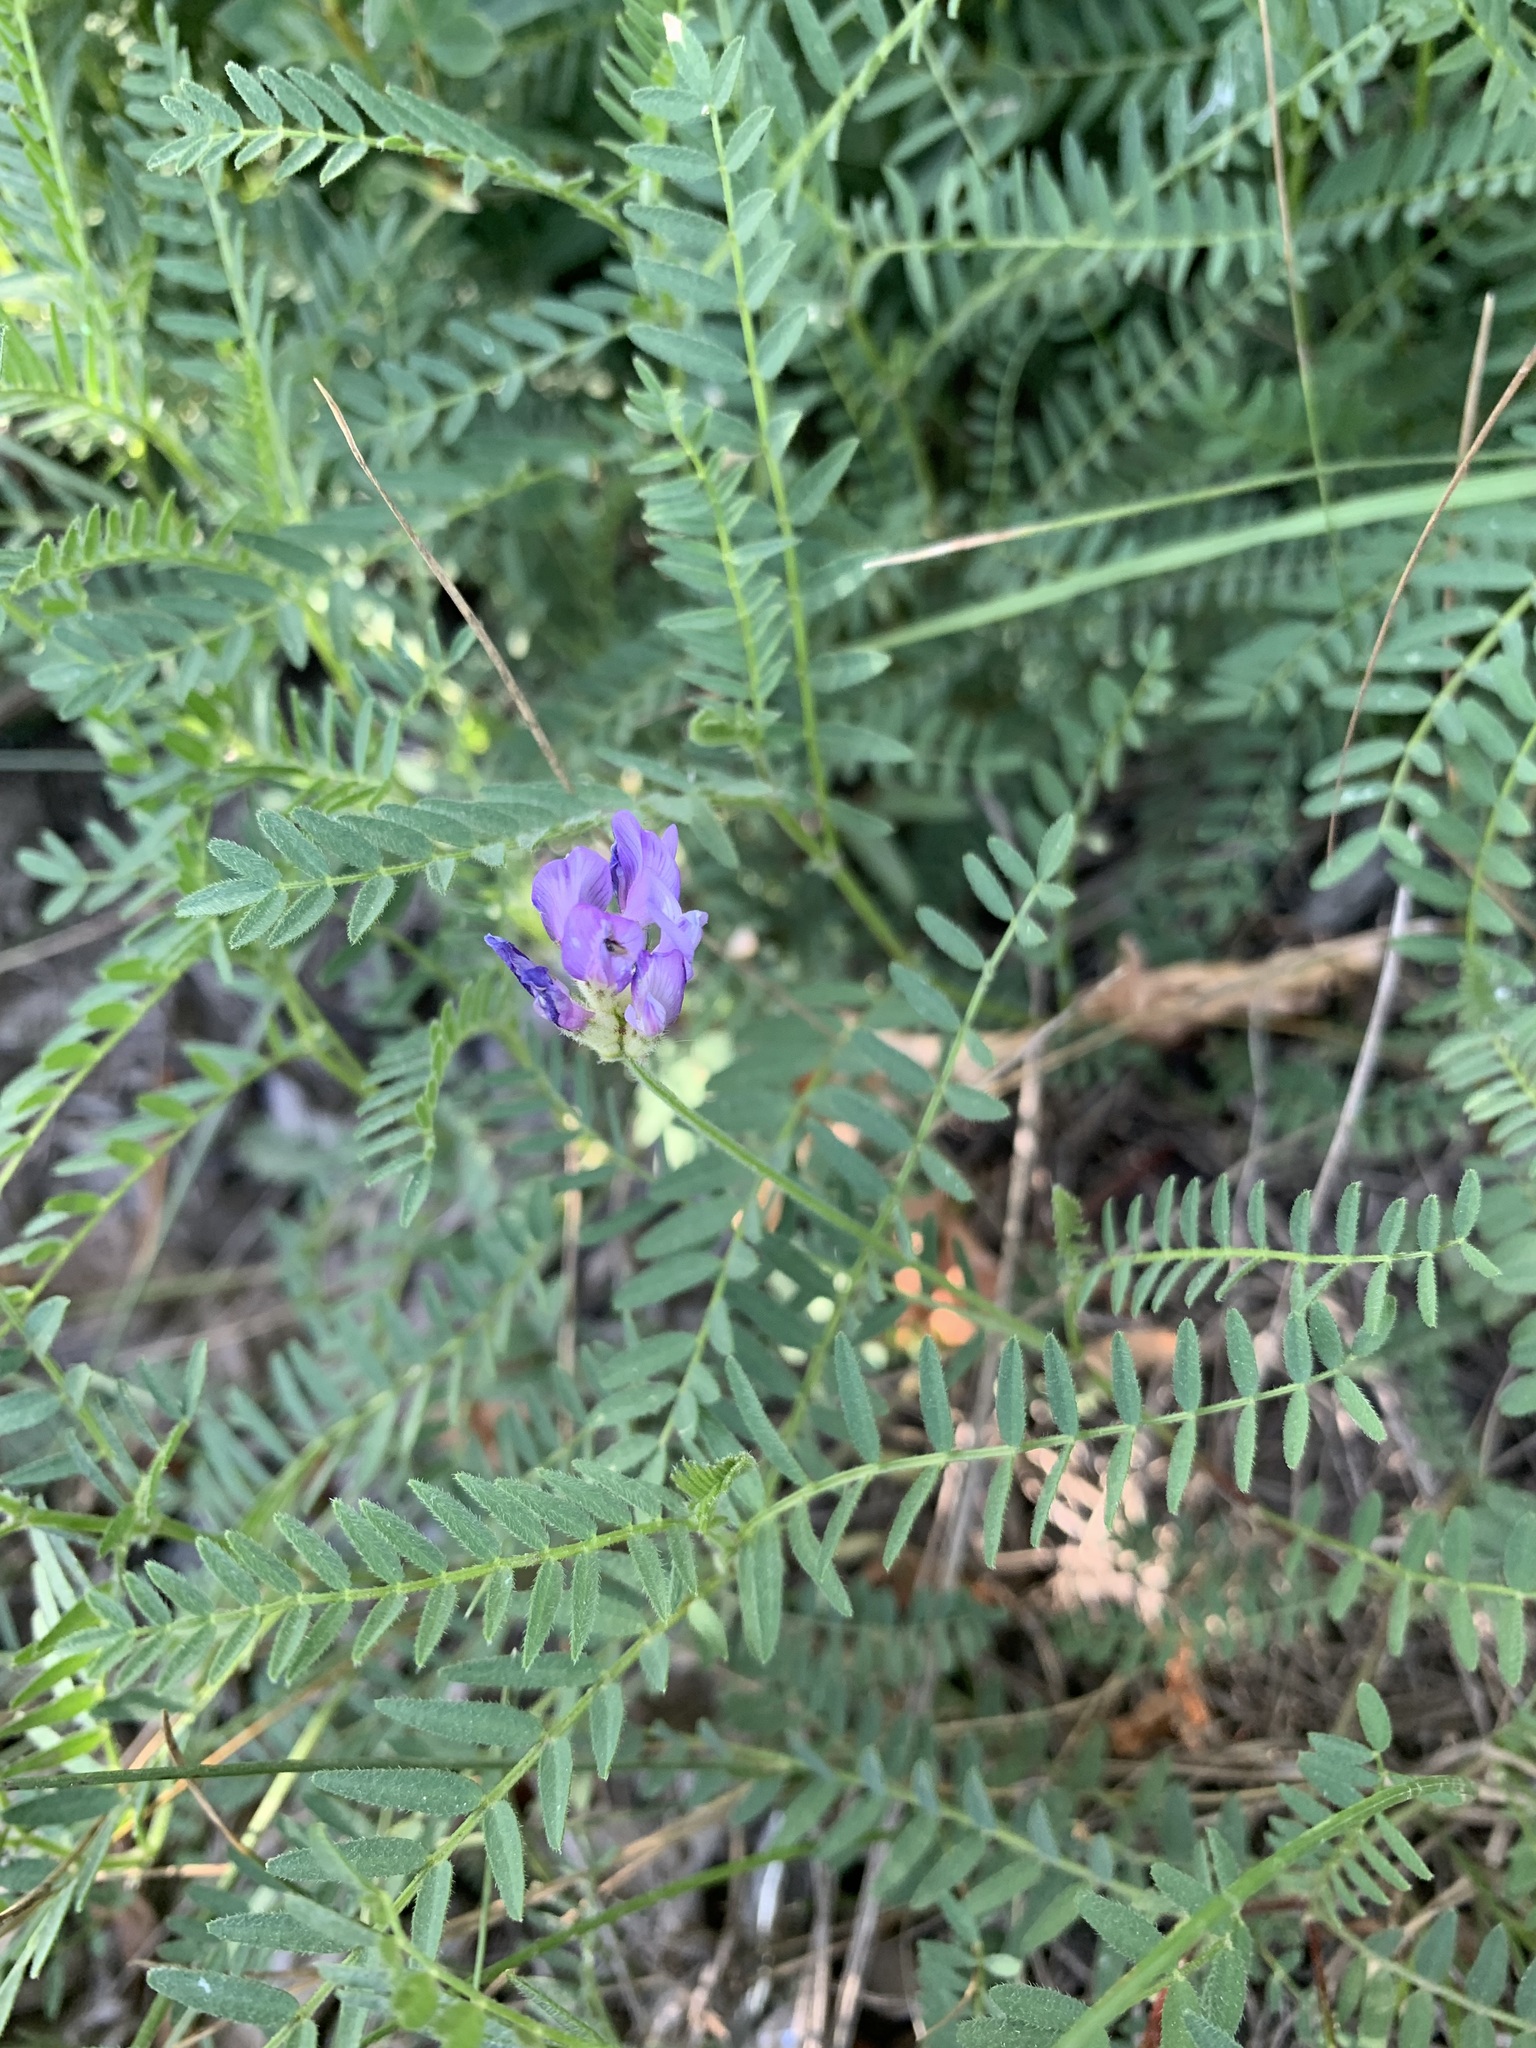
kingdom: Plantae
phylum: Tracheophyta
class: Magnoliopsida
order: Fabales
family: Fabaceae
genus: Astragalus
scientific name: Astragalus danicus
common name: Purple milk-vetch
